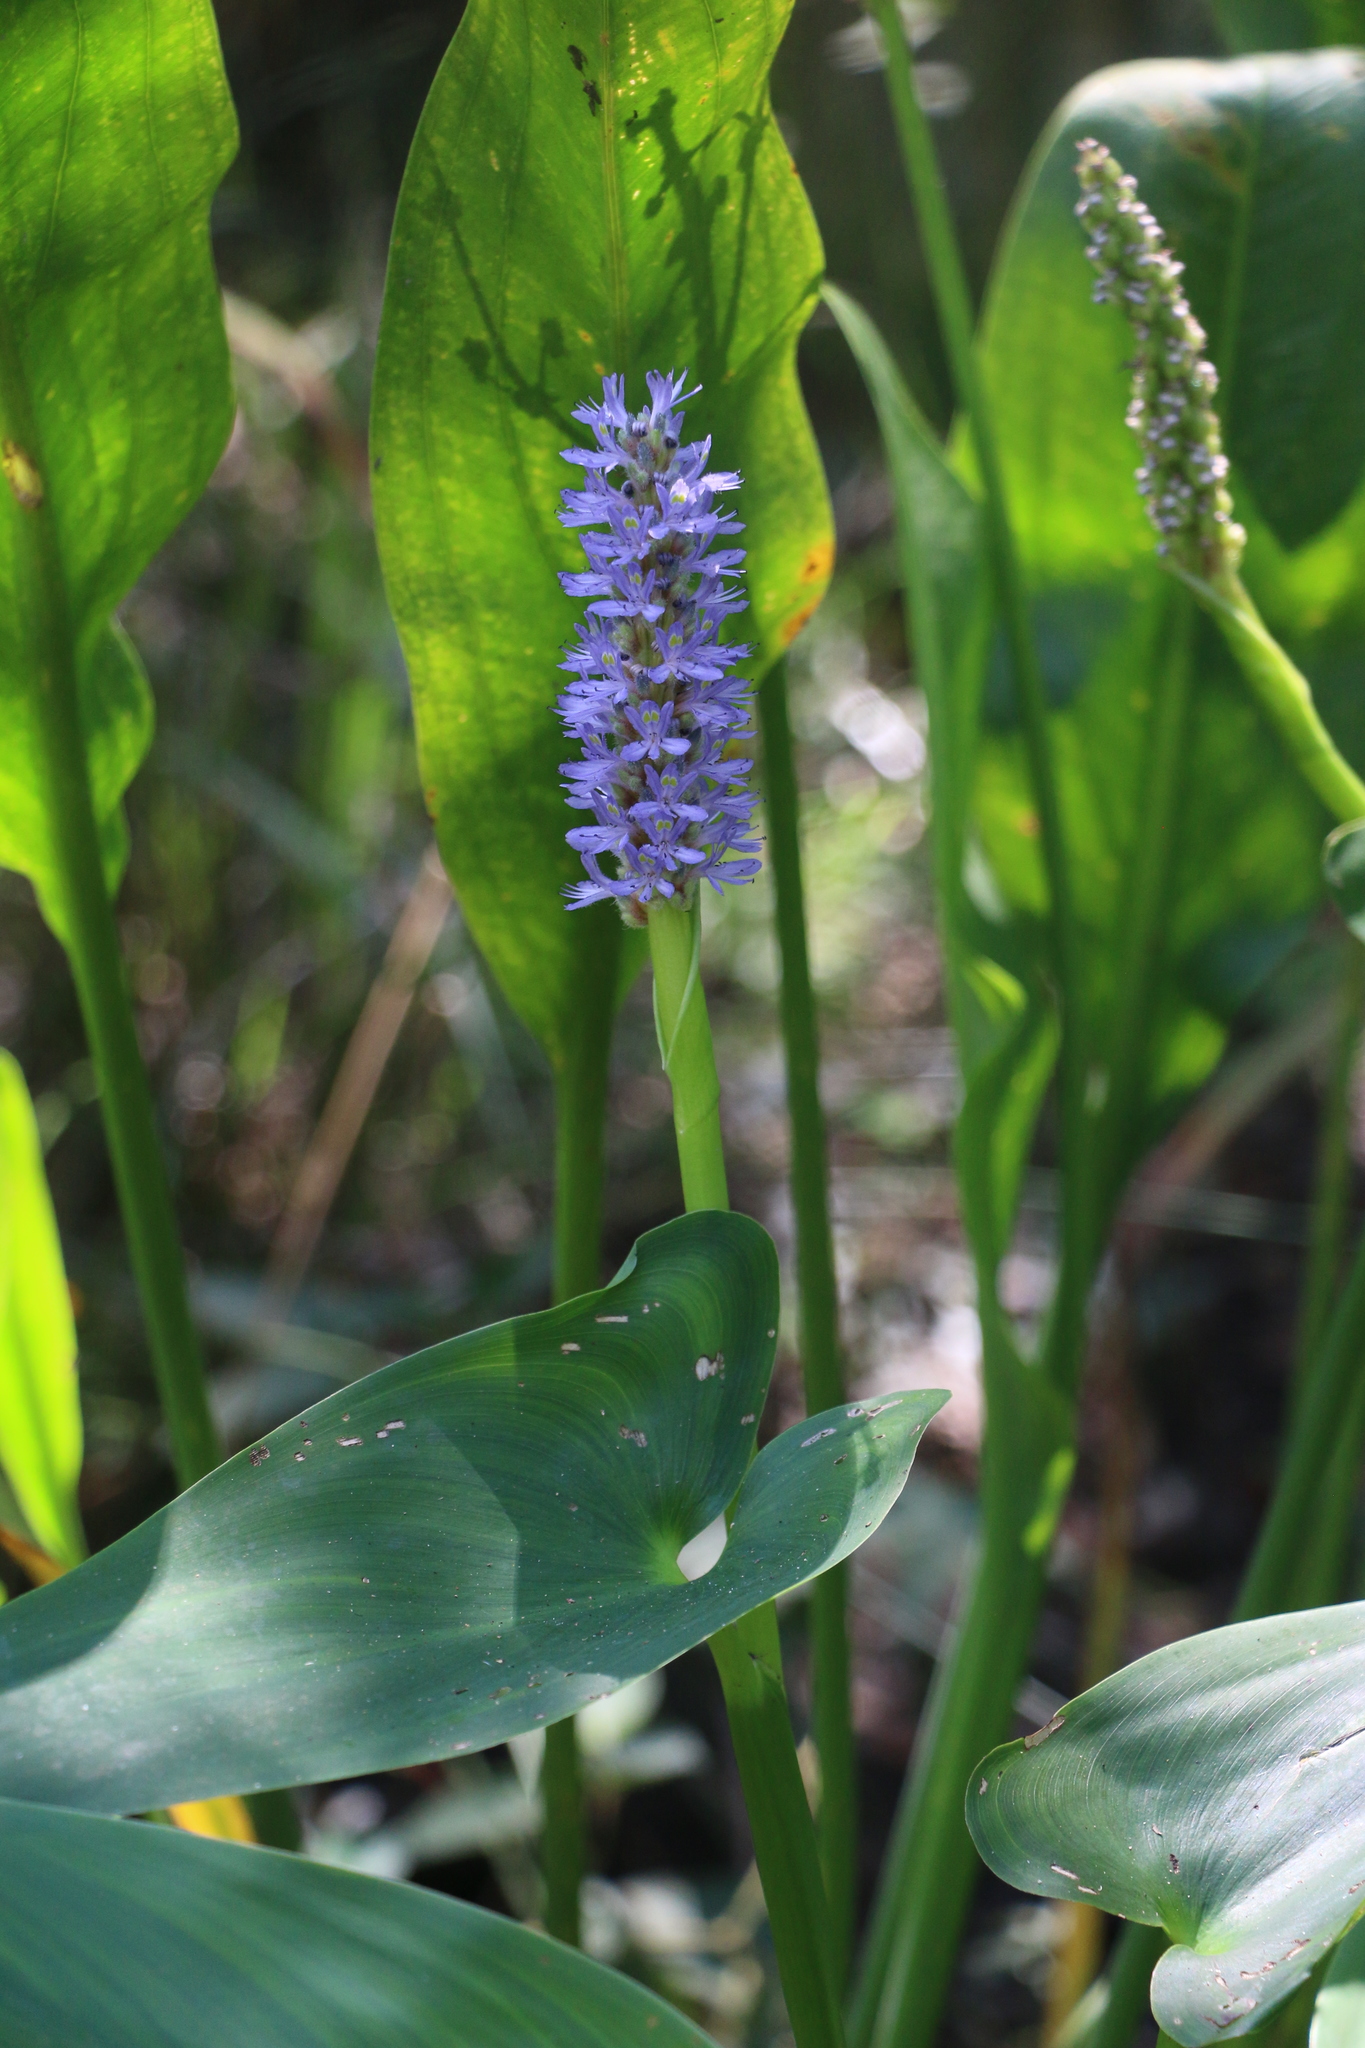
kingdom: Plantae
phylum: Tracheophyta
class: Liliopsida
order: Commelinales
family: Pontederiaceae
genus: Pontederia
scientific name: Pontederia cordata
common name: Pickerelweed
